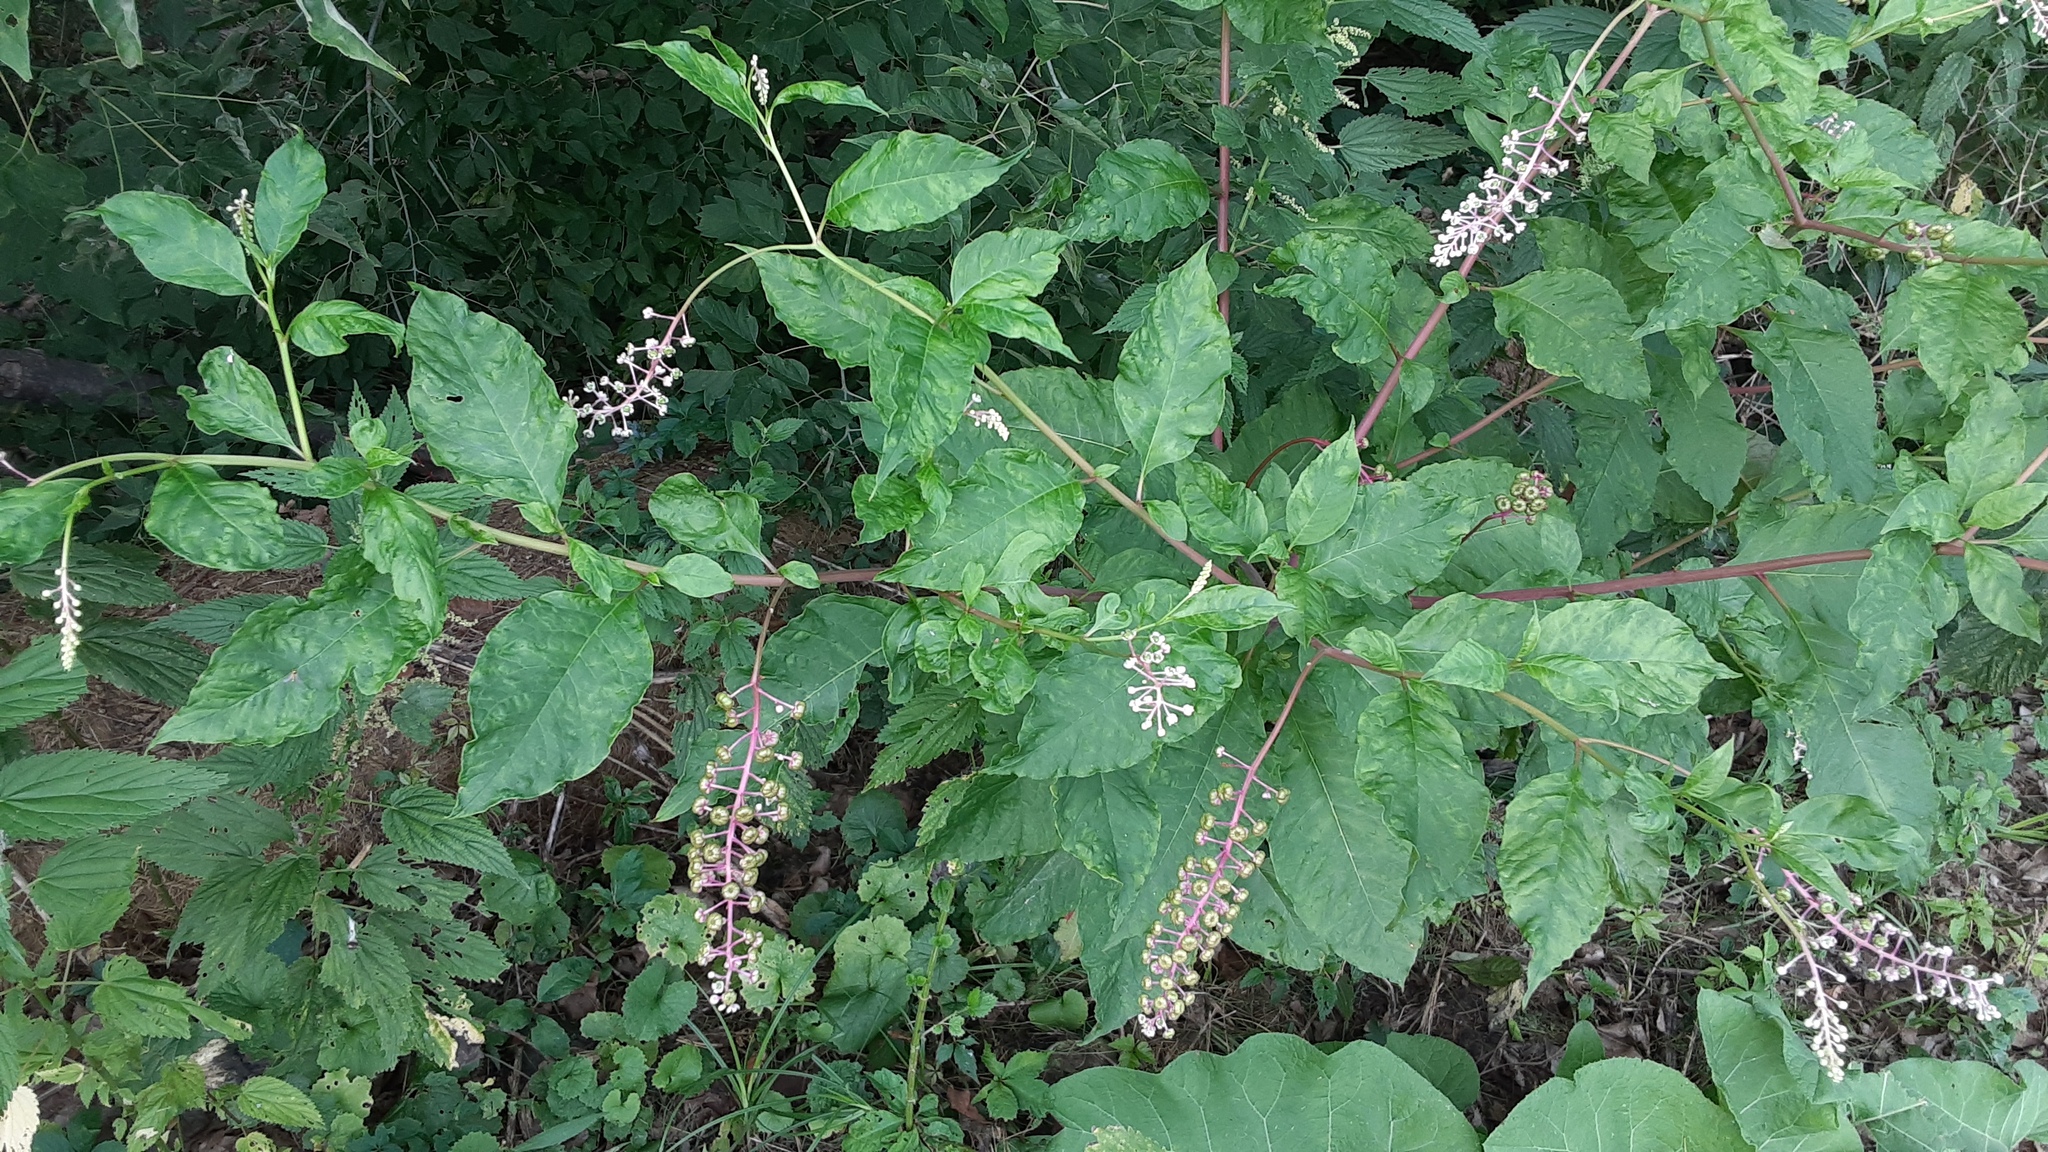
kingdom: Plantae
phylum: Tracheophyta
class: Magnoliopsida
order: Caryophyllales
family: Phytolaccaceae
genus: Phytolacca
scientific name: Phytolacca americana
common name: American pokeweed
